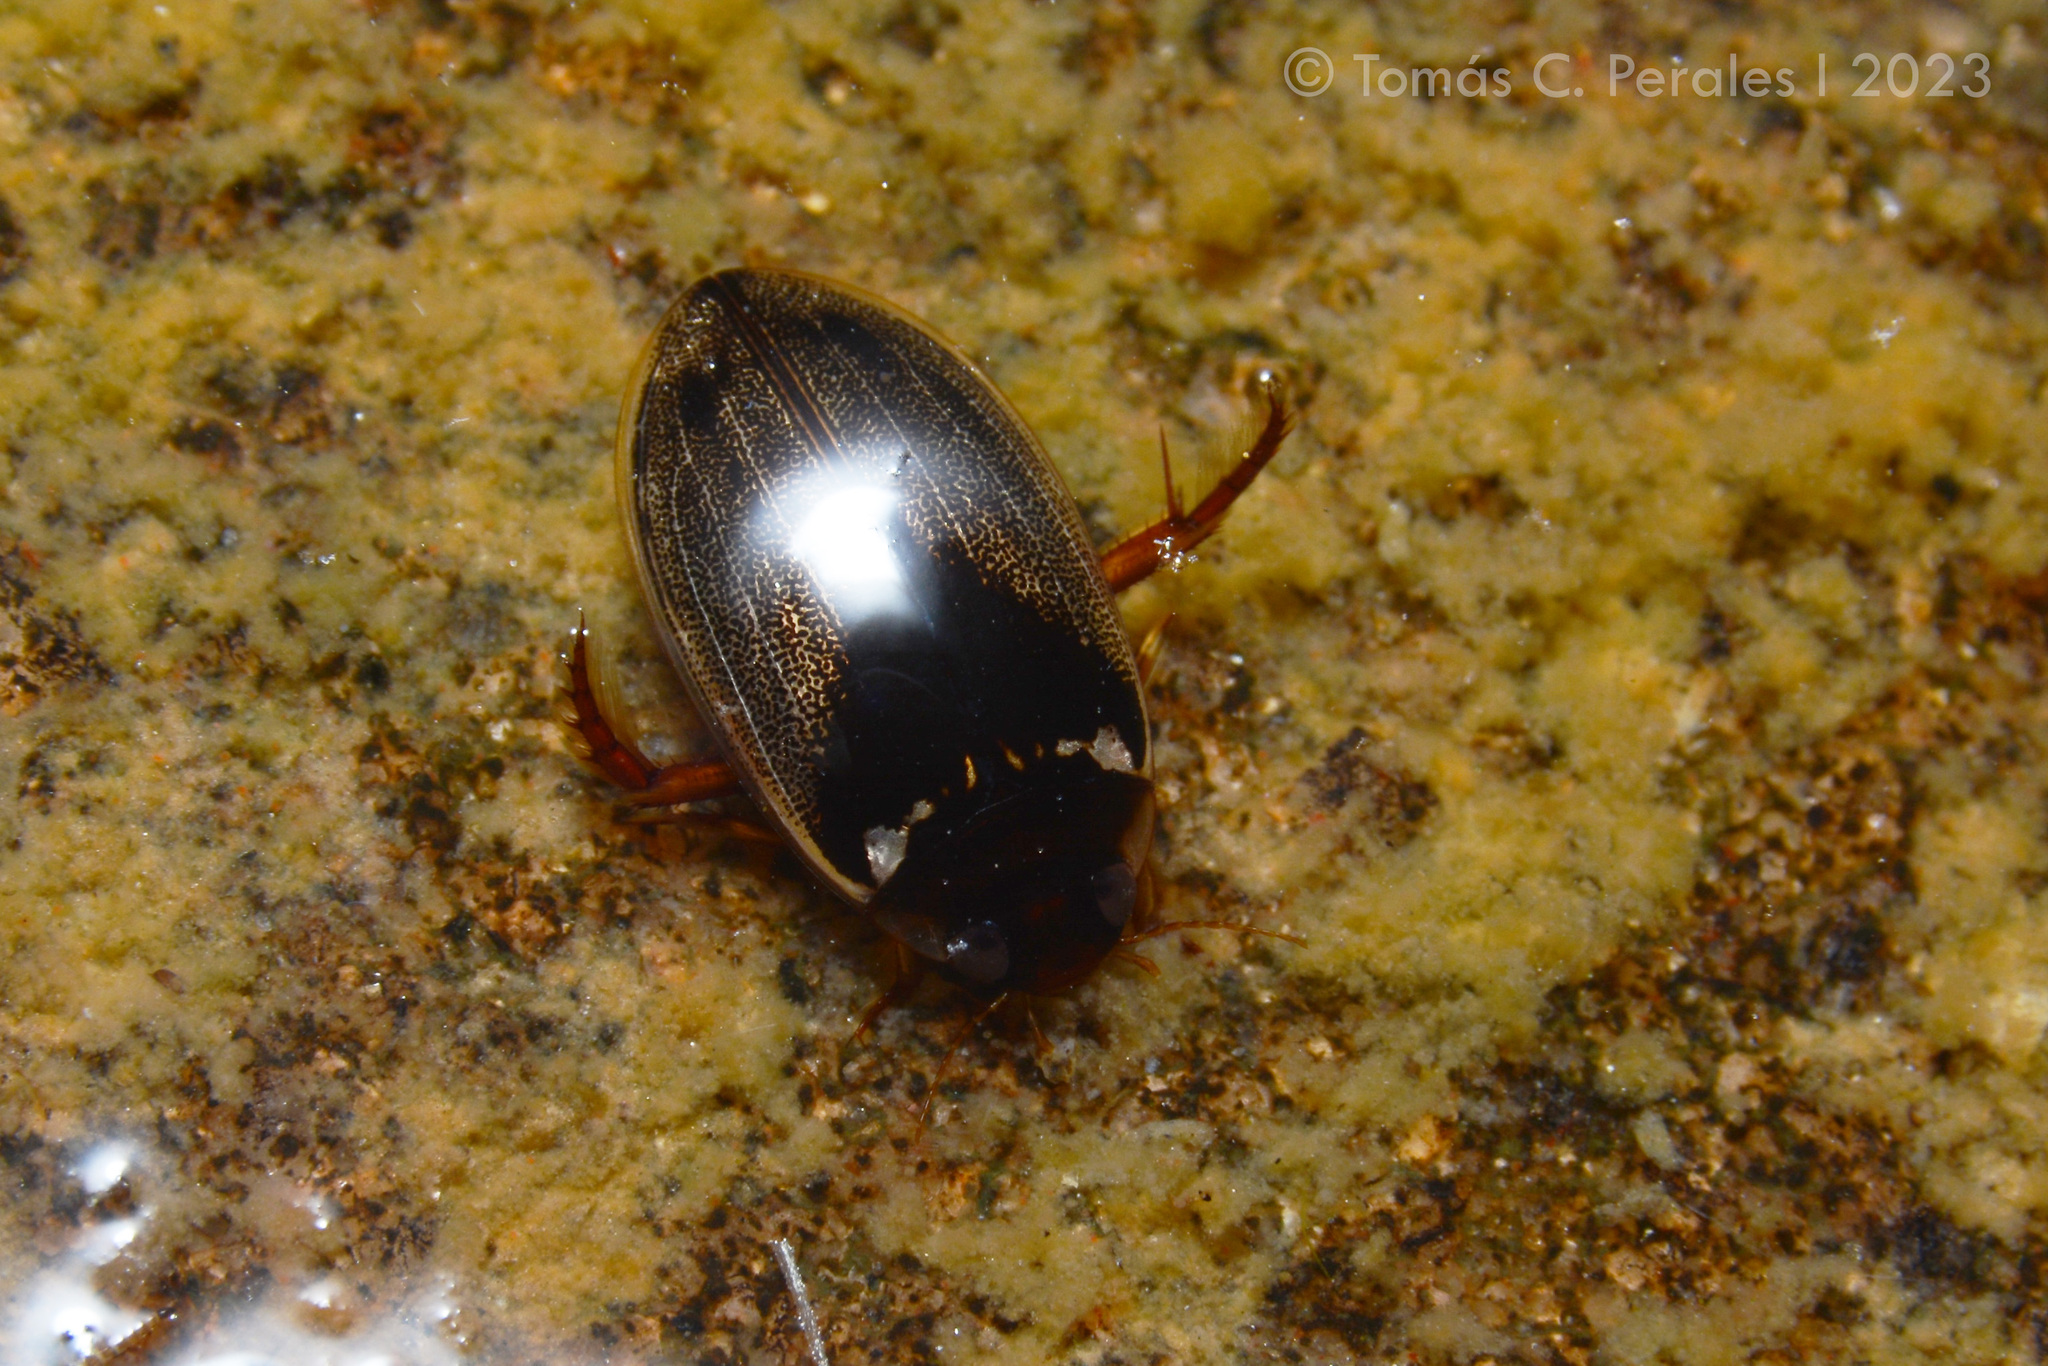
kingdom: Animalia
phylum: Arthropoda
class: Insecta
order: Coleoptera
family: Dytiscidae
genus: Meridiorhantus
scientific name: Meridiorhantus calidus
